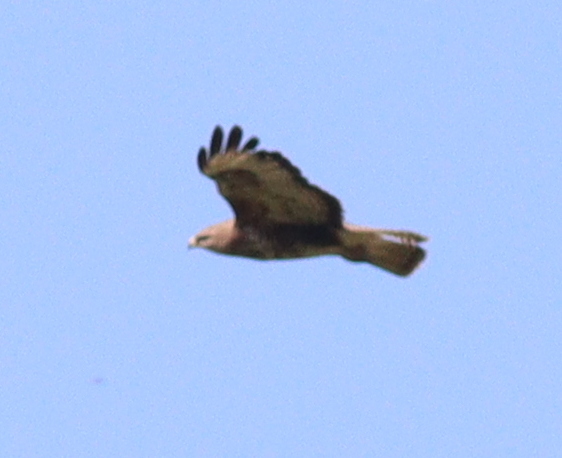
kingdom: Animalia
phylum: Chordata
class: Aves
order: Accipitriformes
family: Accipitridae
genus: Buteo
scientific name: Buteo buteo
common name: Common buzzard
